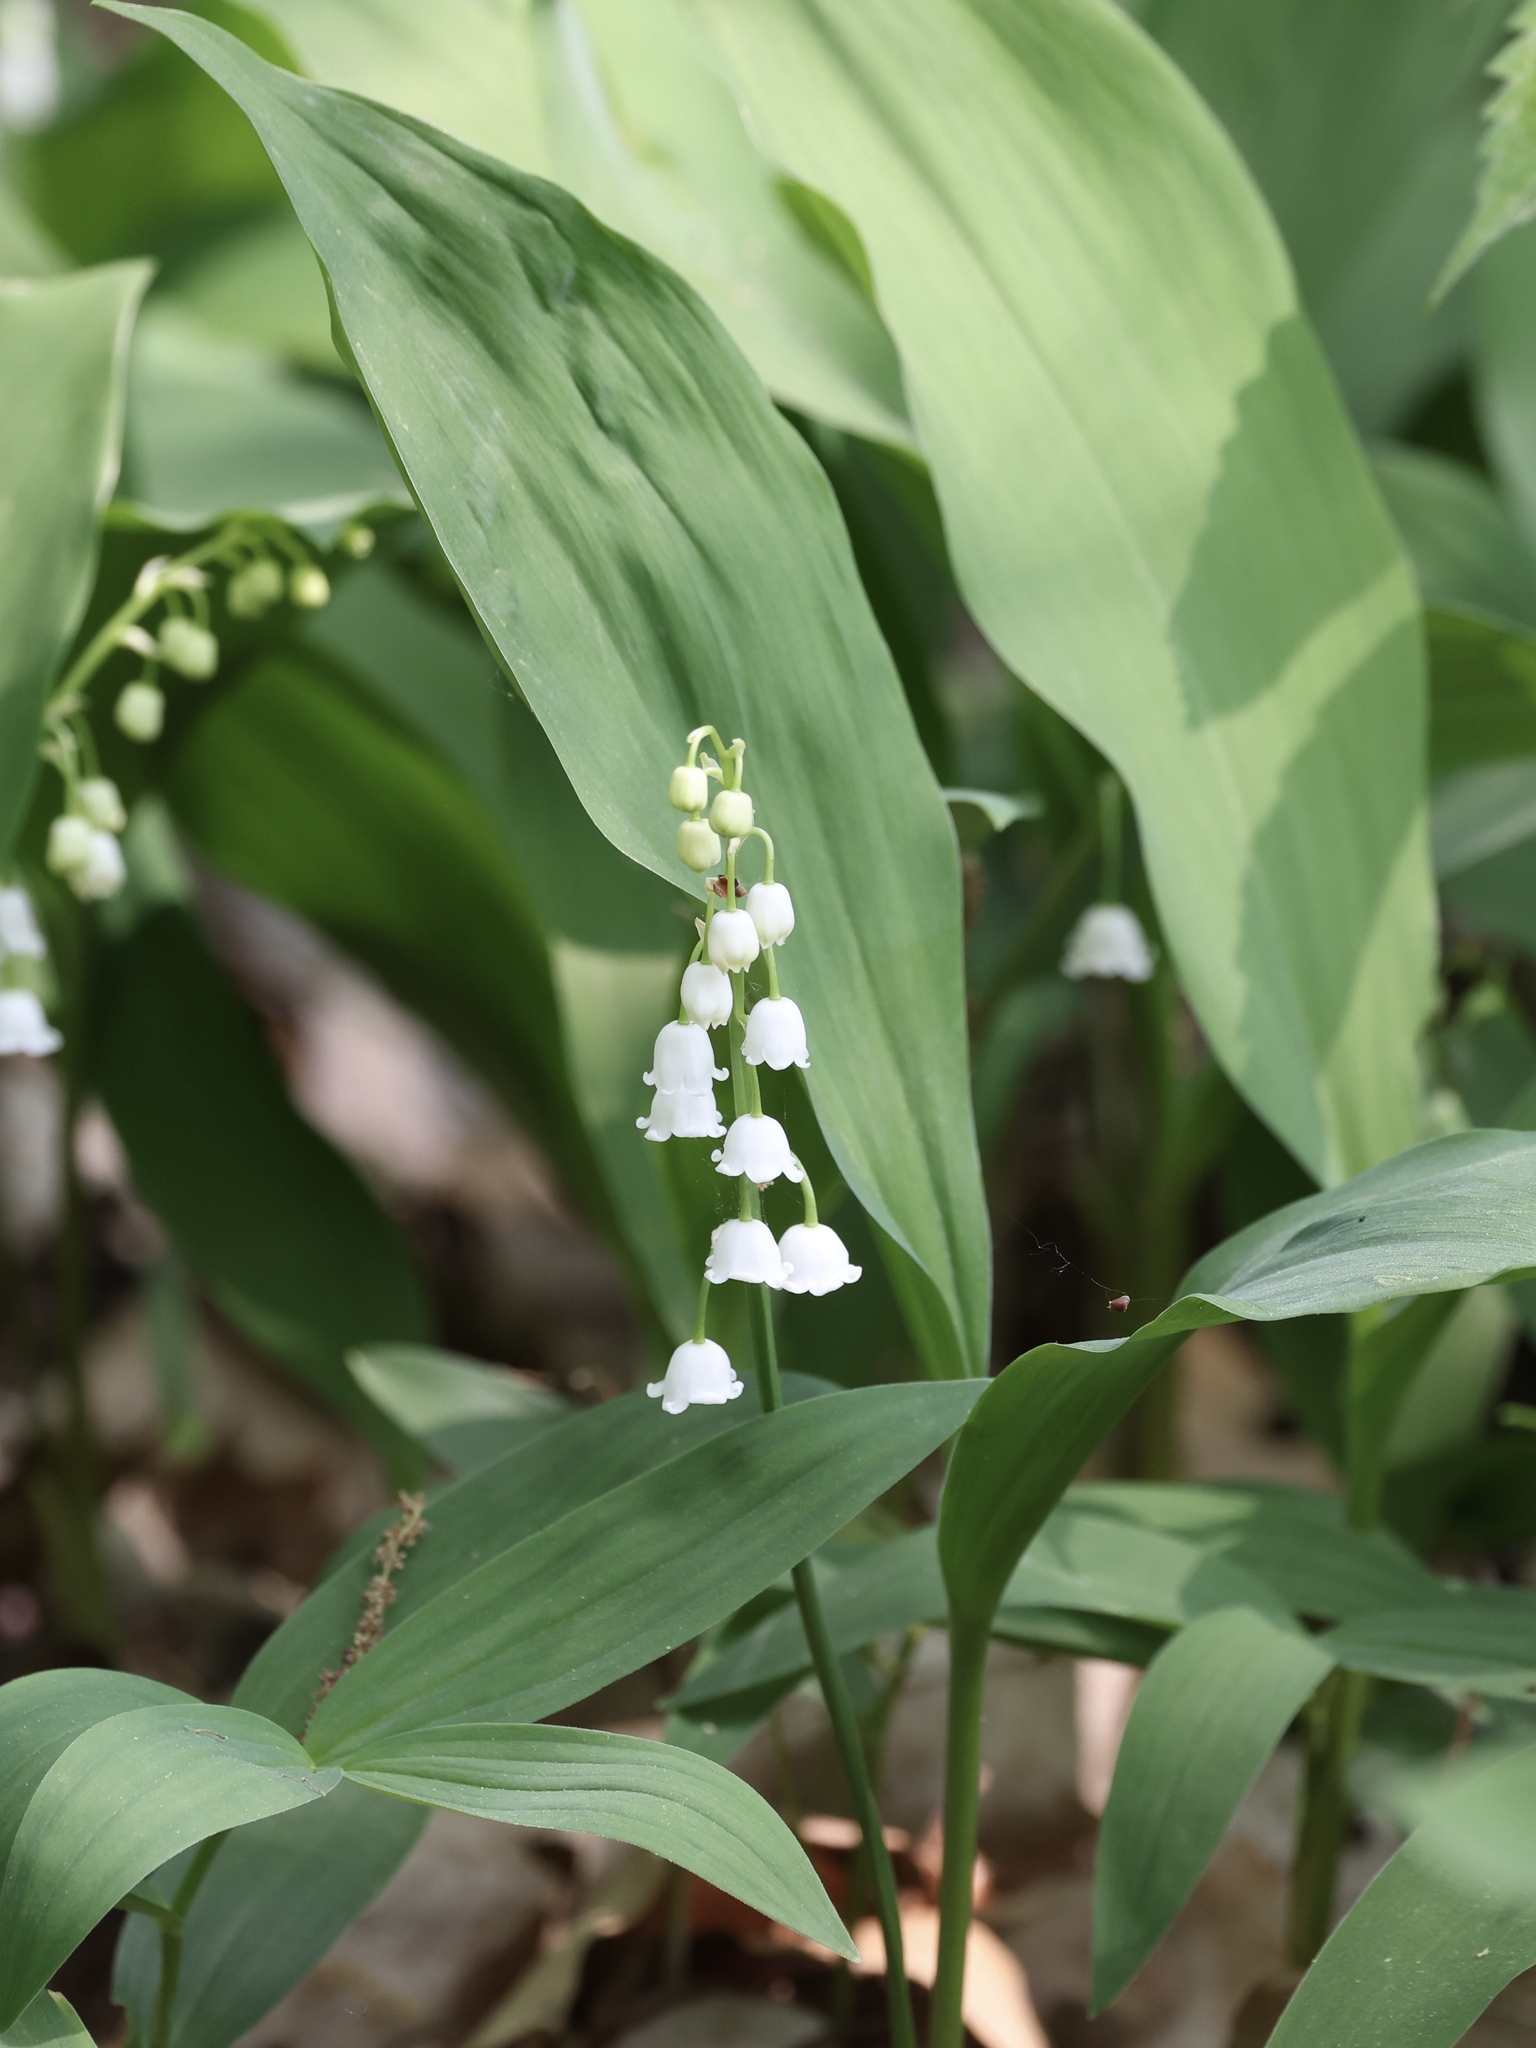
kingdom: Plantae
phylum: Tracheophyta
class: Liliopsida
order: Asparagales
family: Asparagaceae
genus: Convallaria
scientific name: Convallaria majalis
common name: Lily-of-the-valley
